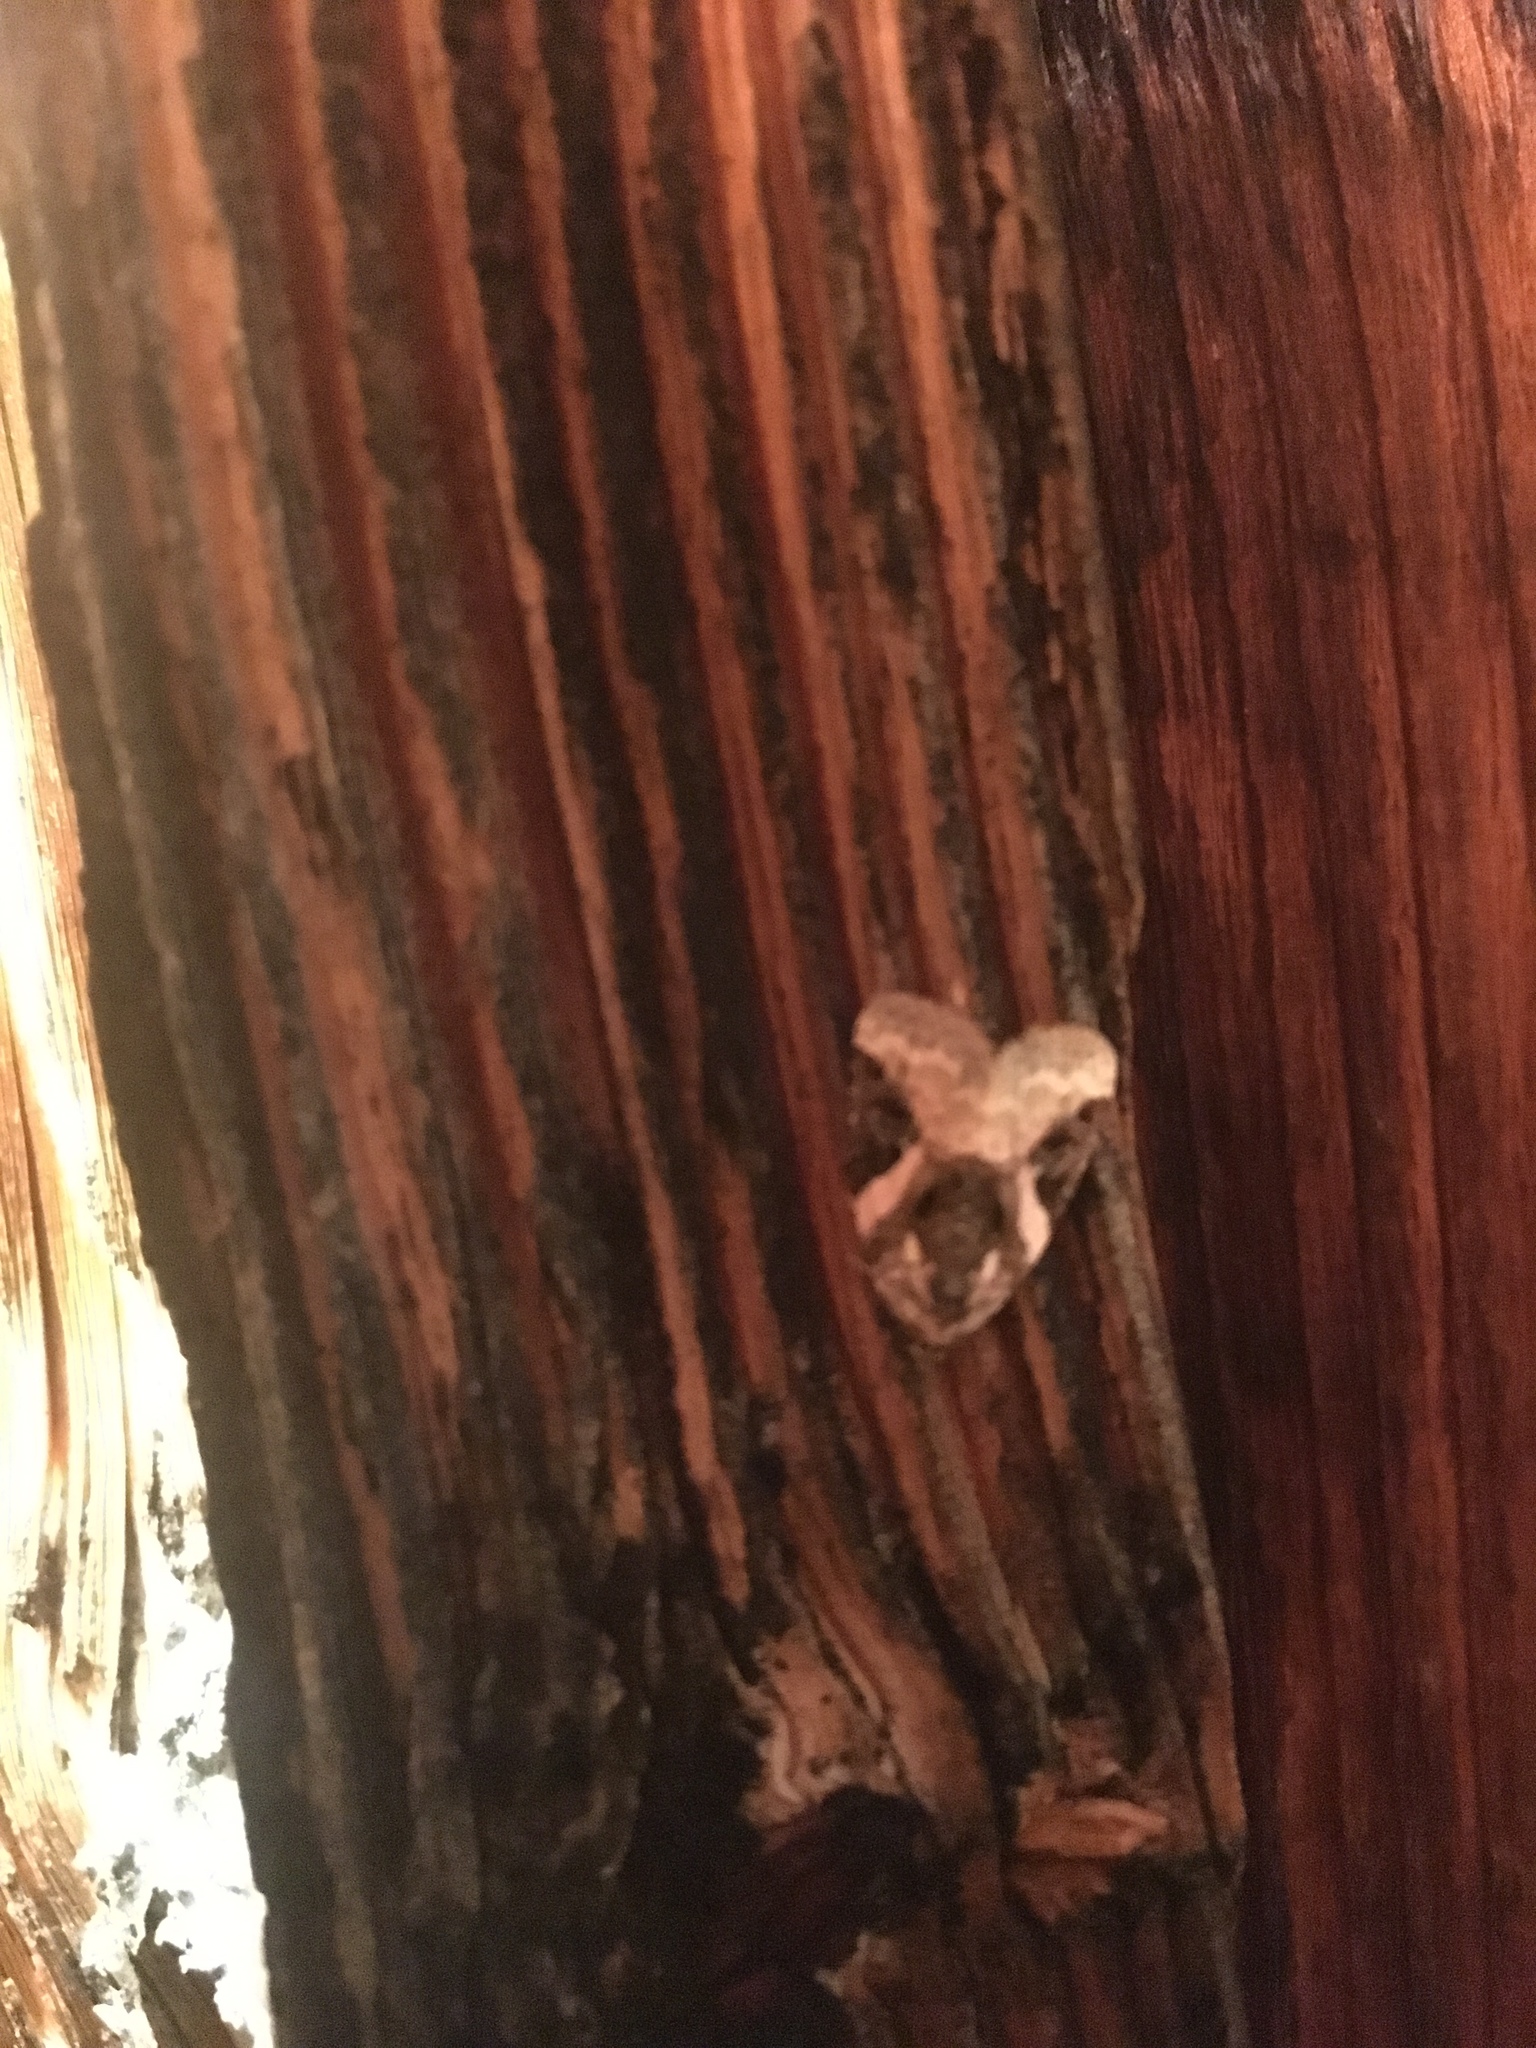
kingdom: Animalia
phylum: Arthropoda
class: Insecta
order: Lepidoptera
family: Noctuidae
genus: Pseudeustrotia
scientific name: Pseudeustrotia carneola
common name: Pink-barred lithacodia moth
